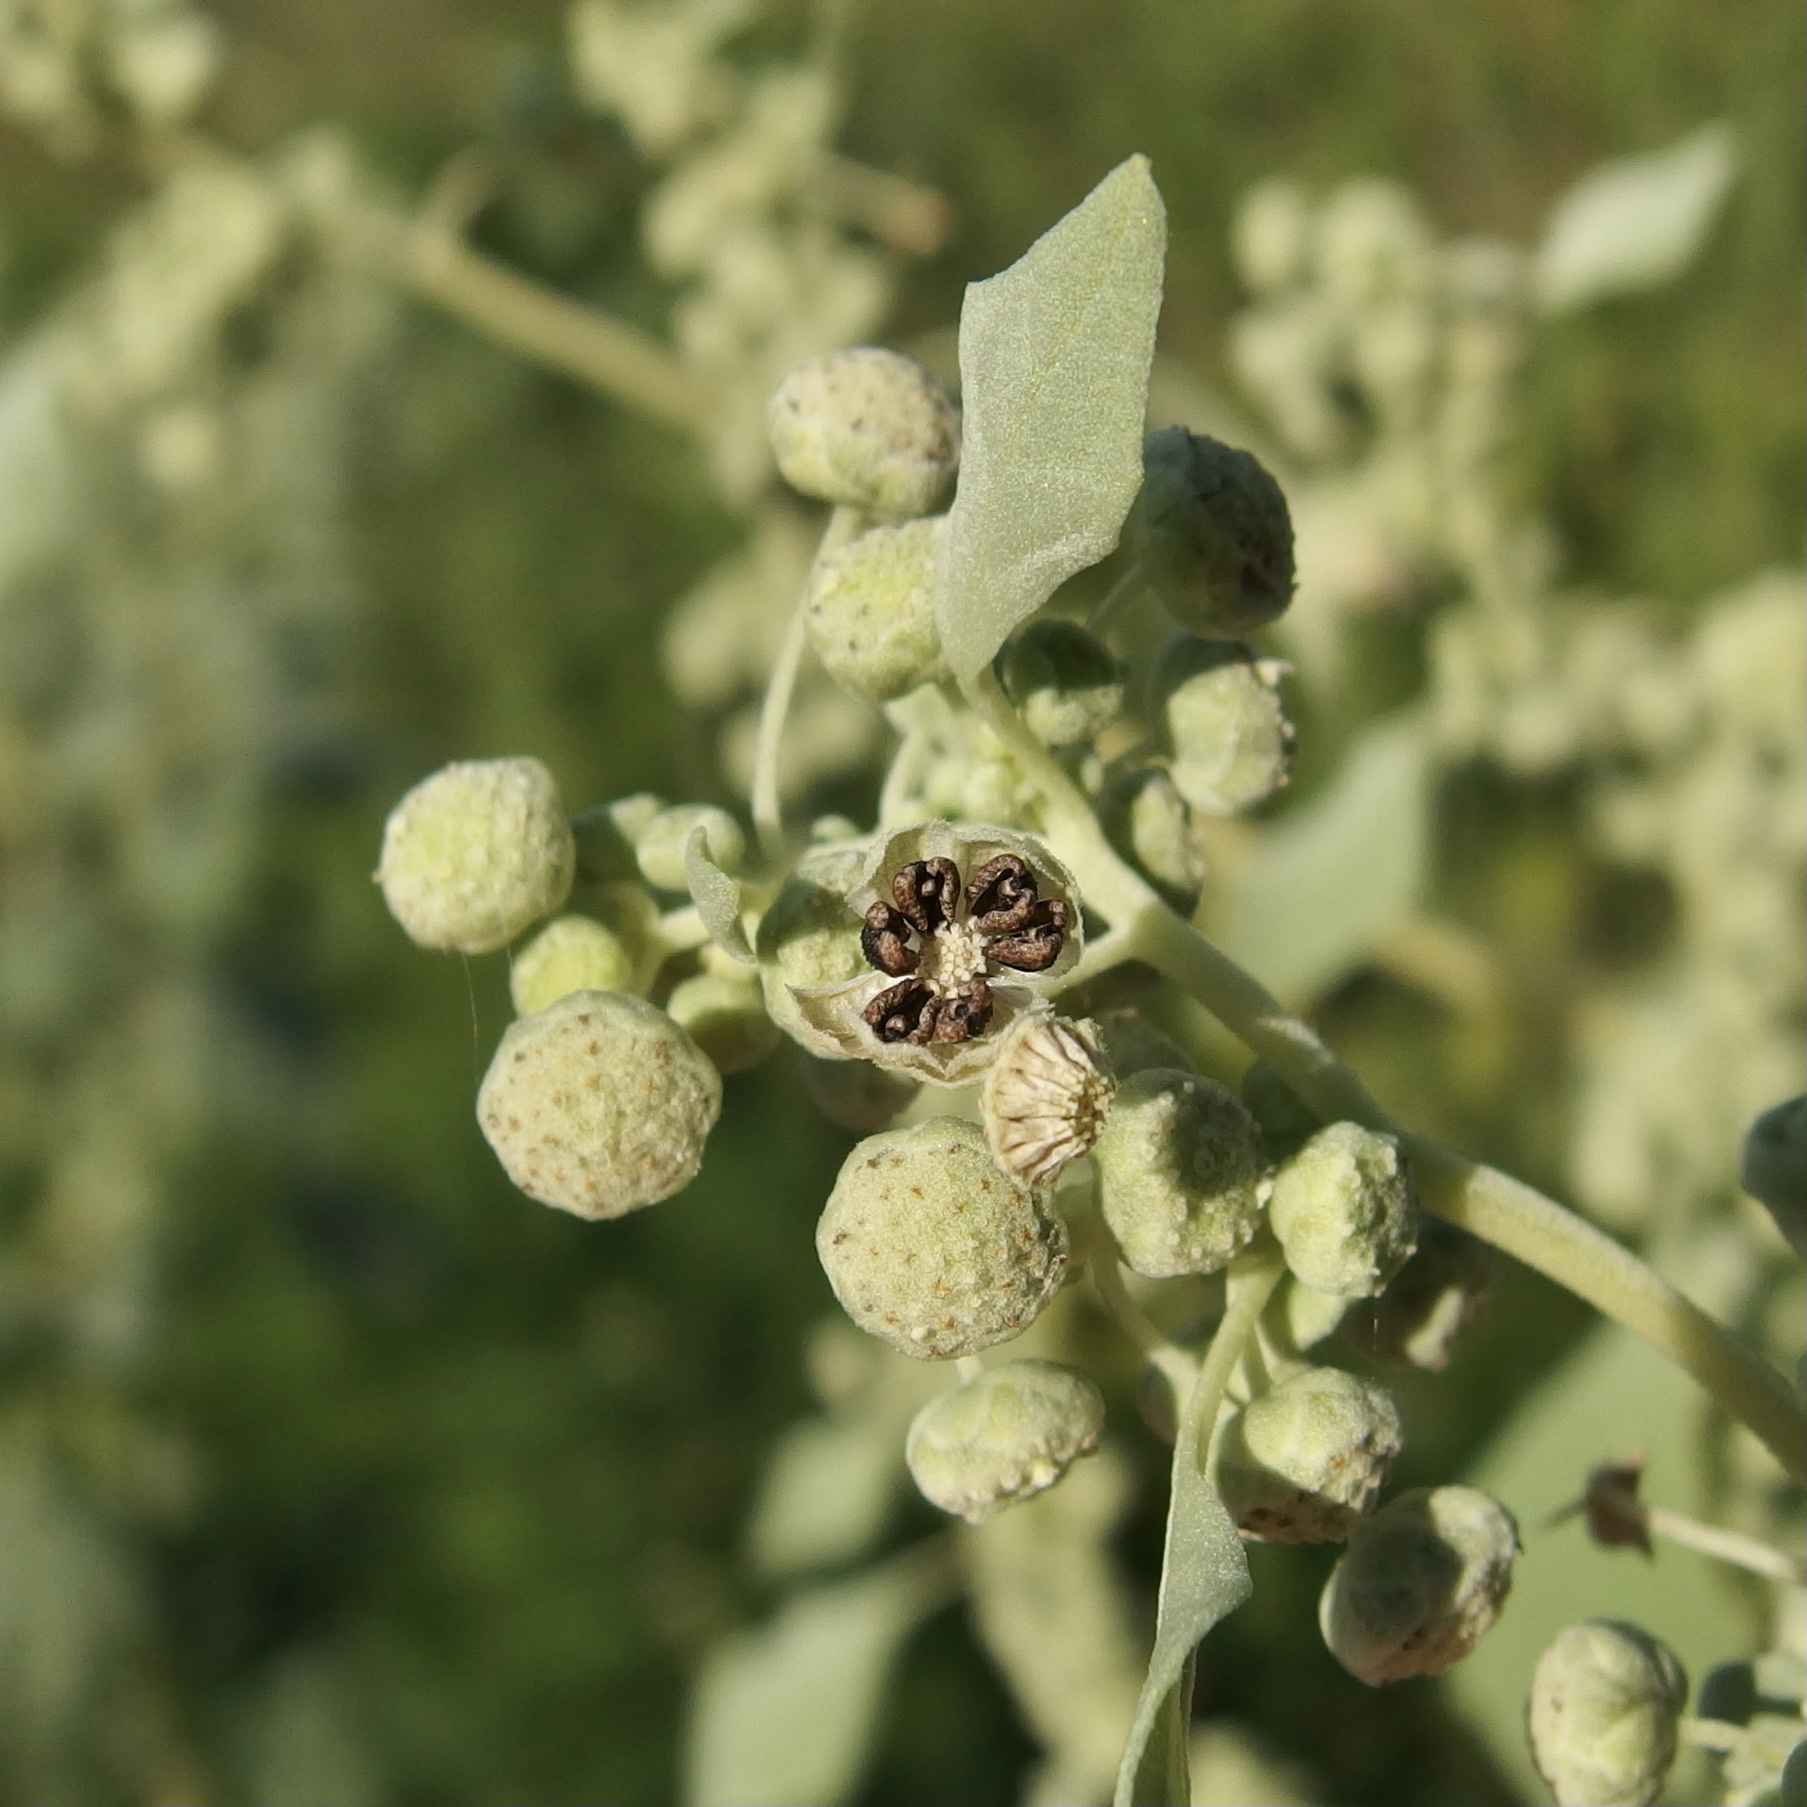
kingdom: Plantae
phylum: Tracheophyta
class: Magnoliopsida
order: Asterales
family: Asteraceae
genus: Parthenice
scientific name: Parthenice mollis
